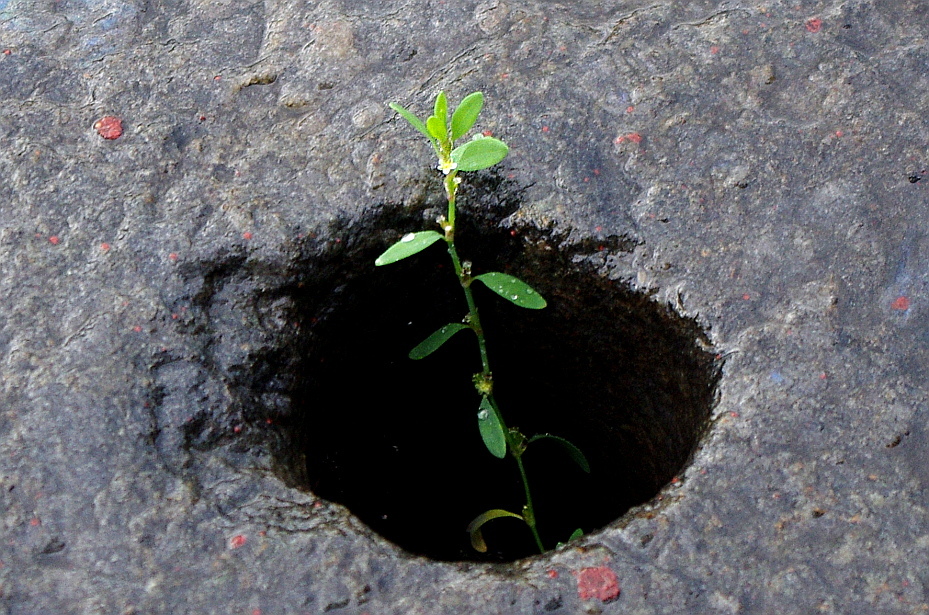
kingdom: Plantae
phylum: Tracheophyta
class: Magnoliopsida
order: Caryophyllales
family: Polygonaceae
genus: Polygonum
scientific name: Polygonum
